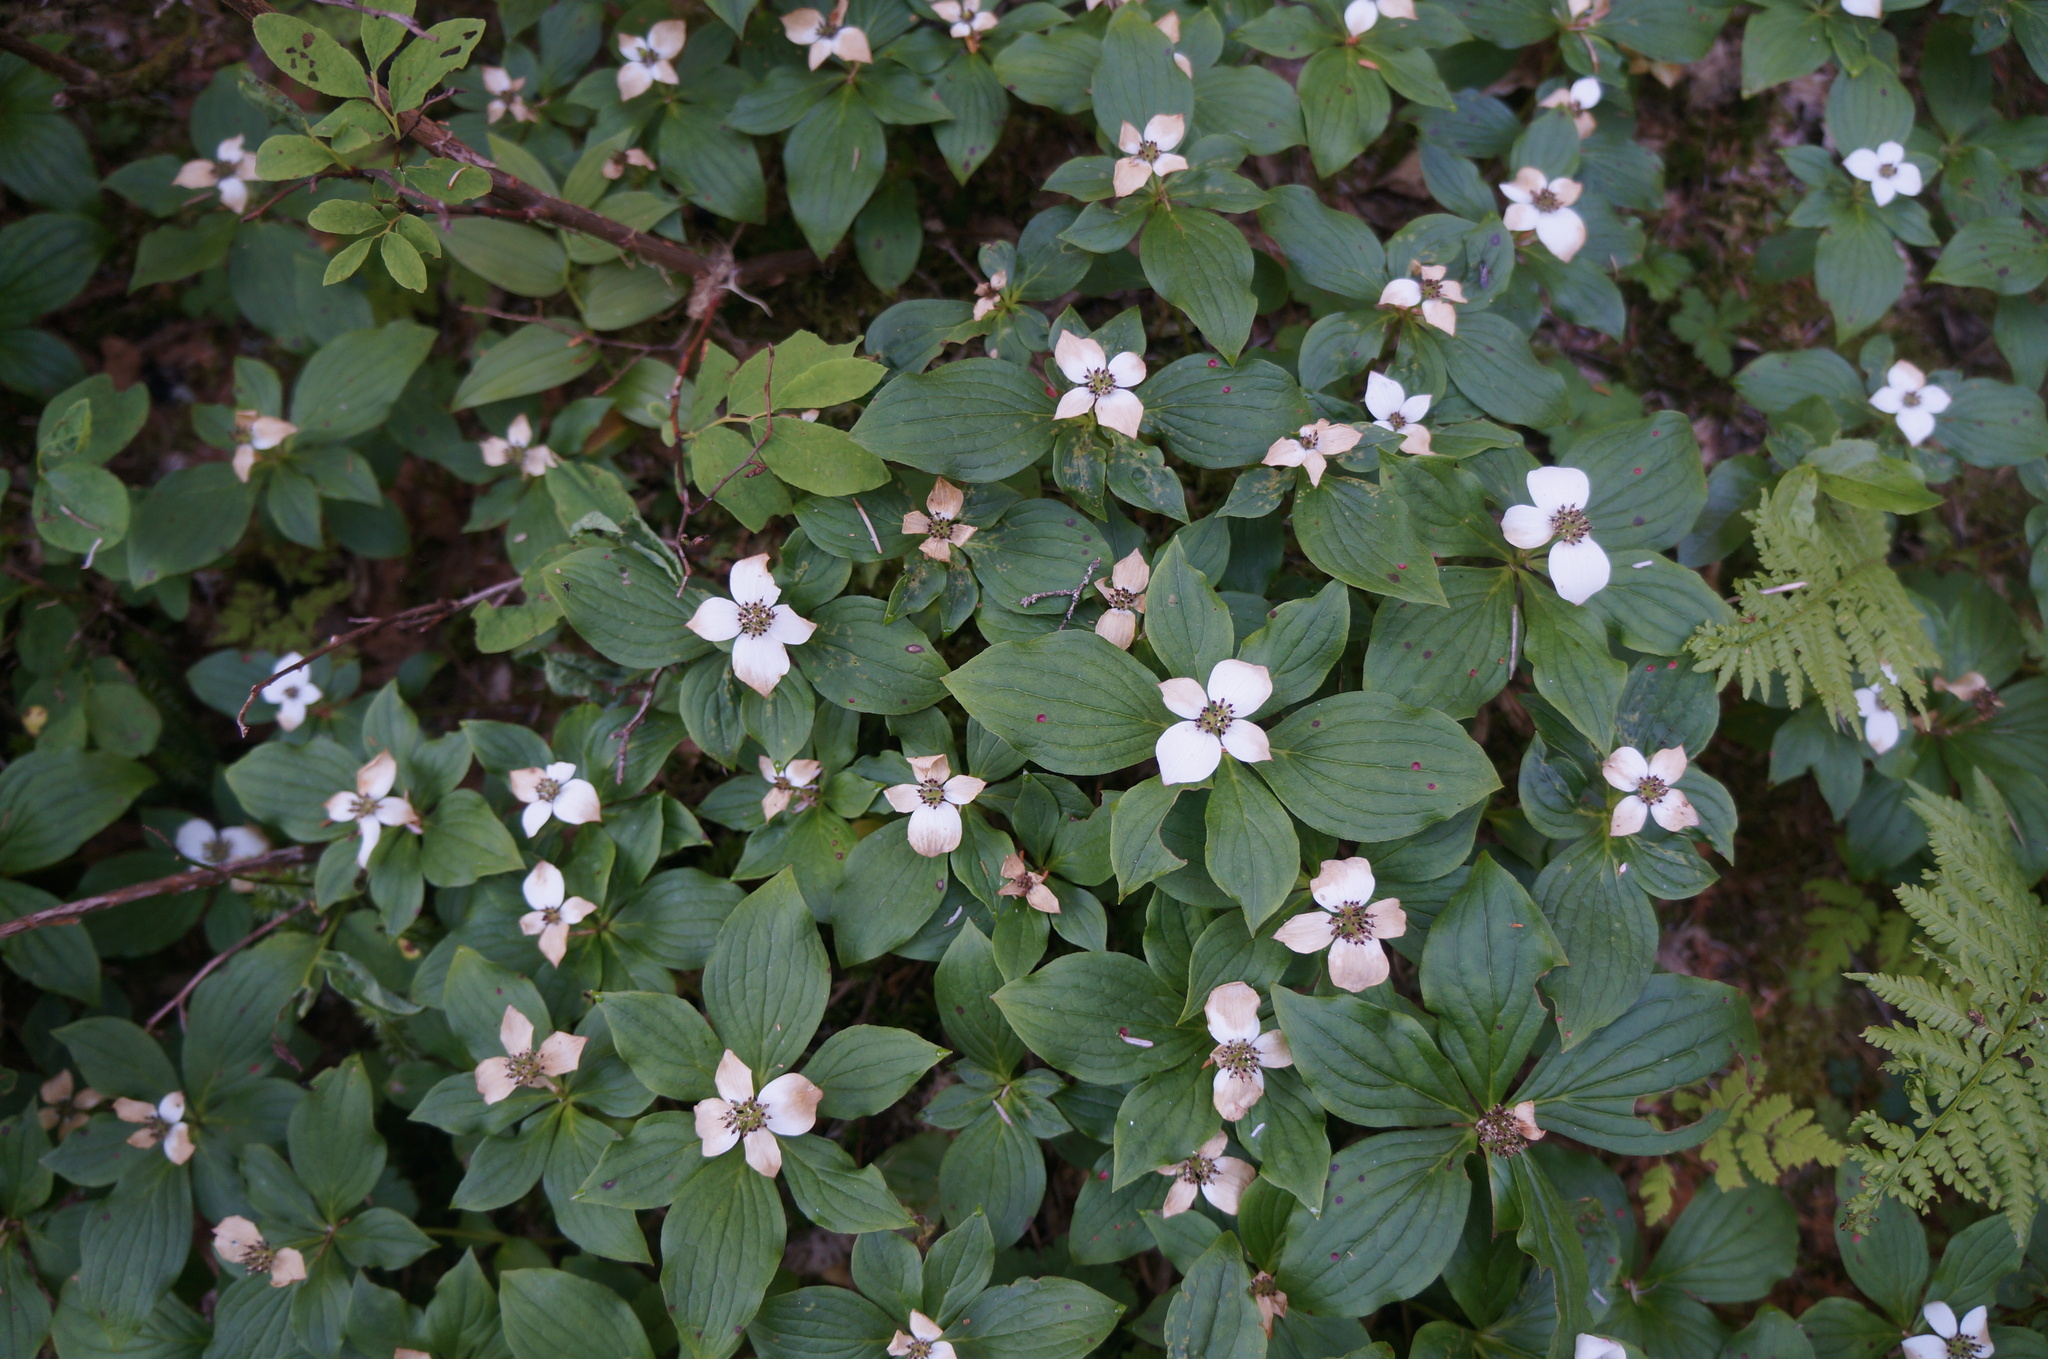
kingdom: Plantae
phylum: Tracheophyta
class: Magnoliopsida
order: Cornales
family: Cornaceae
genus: Cornus
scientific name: Cornus unalaschkensis
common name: Alaska bunchberry
